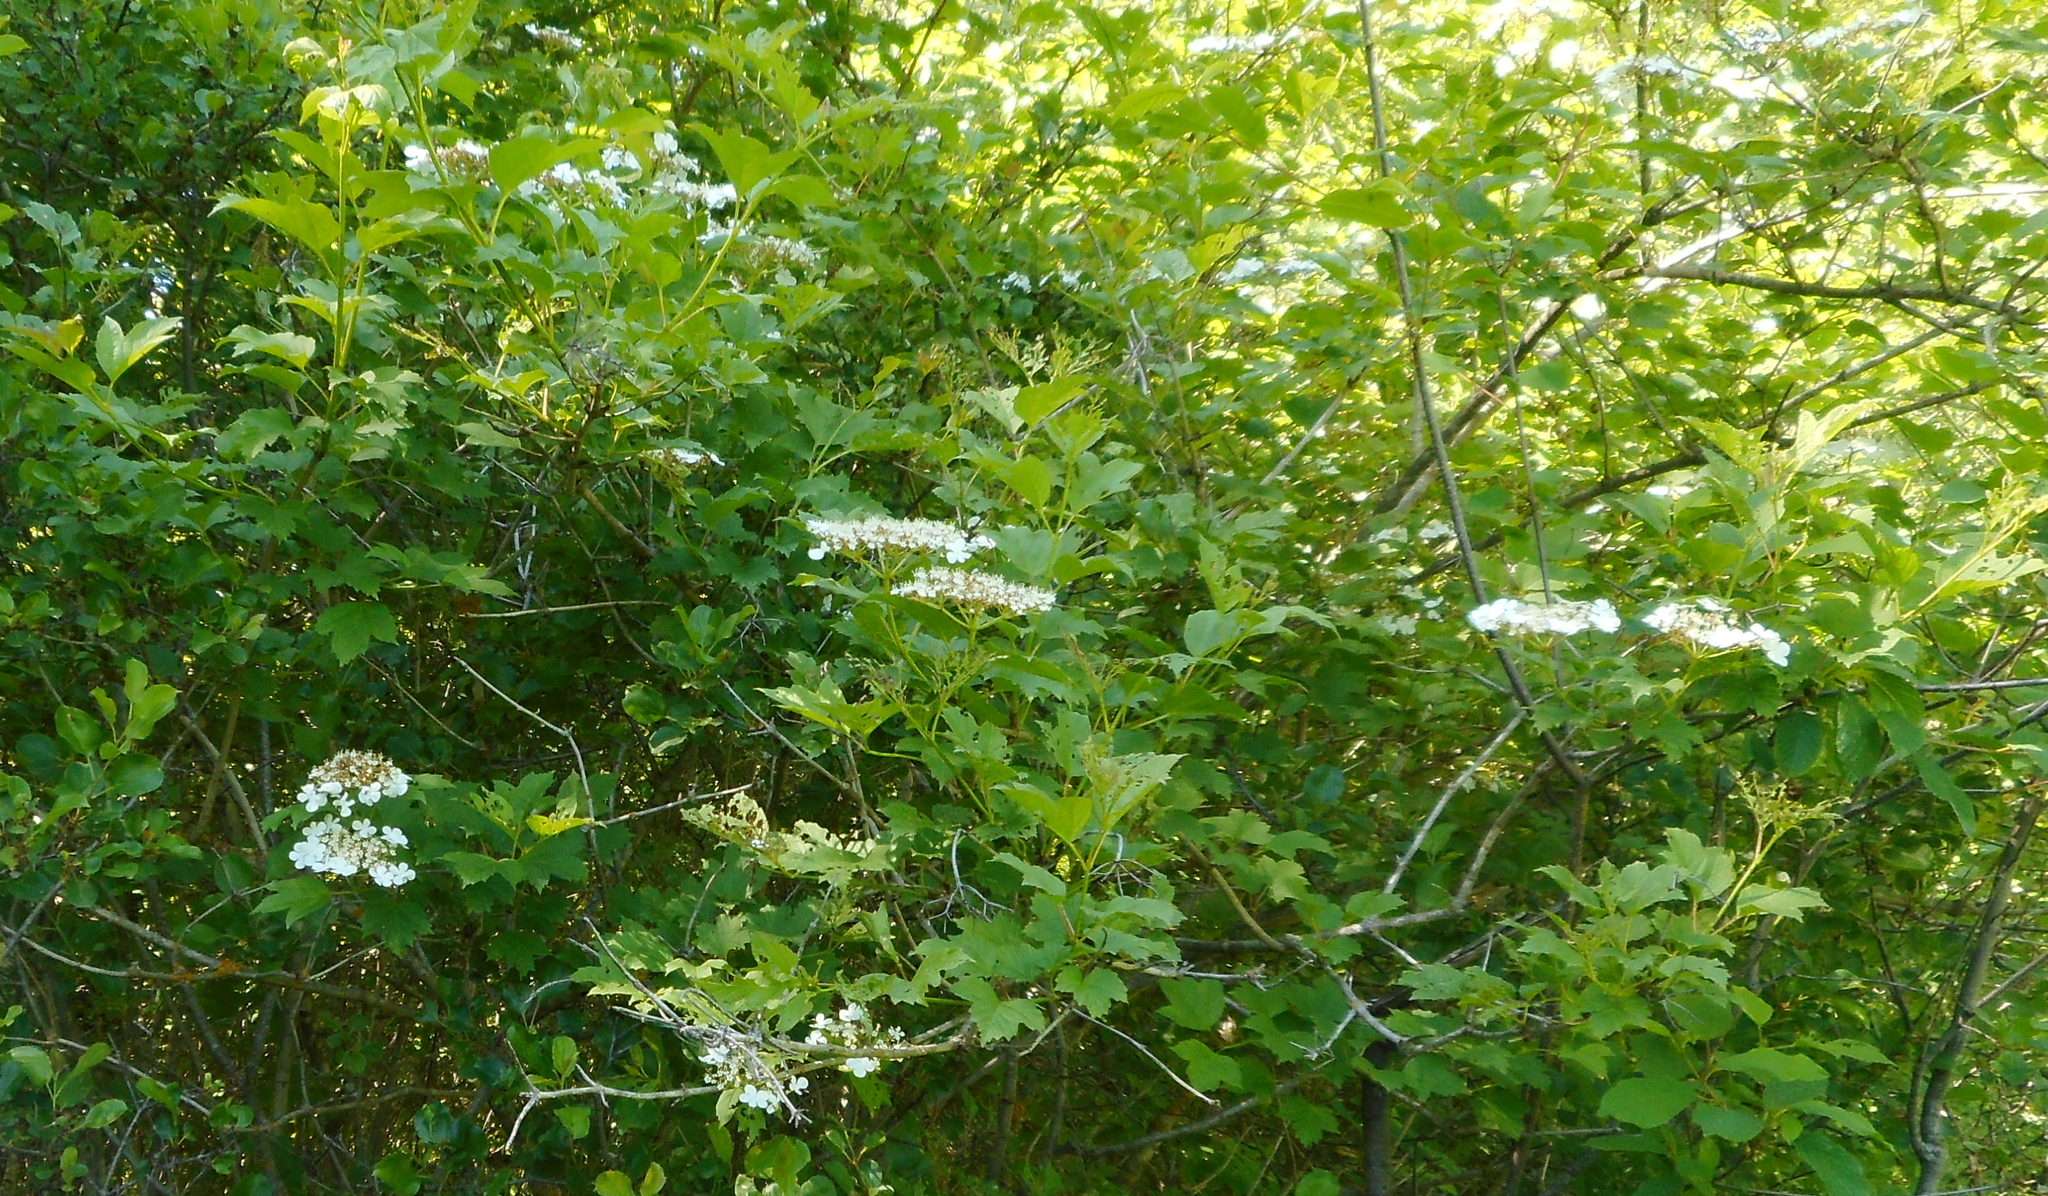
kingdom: Plantae
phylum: Tracheophyta
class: Magnoliopsida
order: Dipsacales
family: Viburnaceae
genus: Viburnum
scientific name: Viburnum opulus
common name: Guelder-rose
